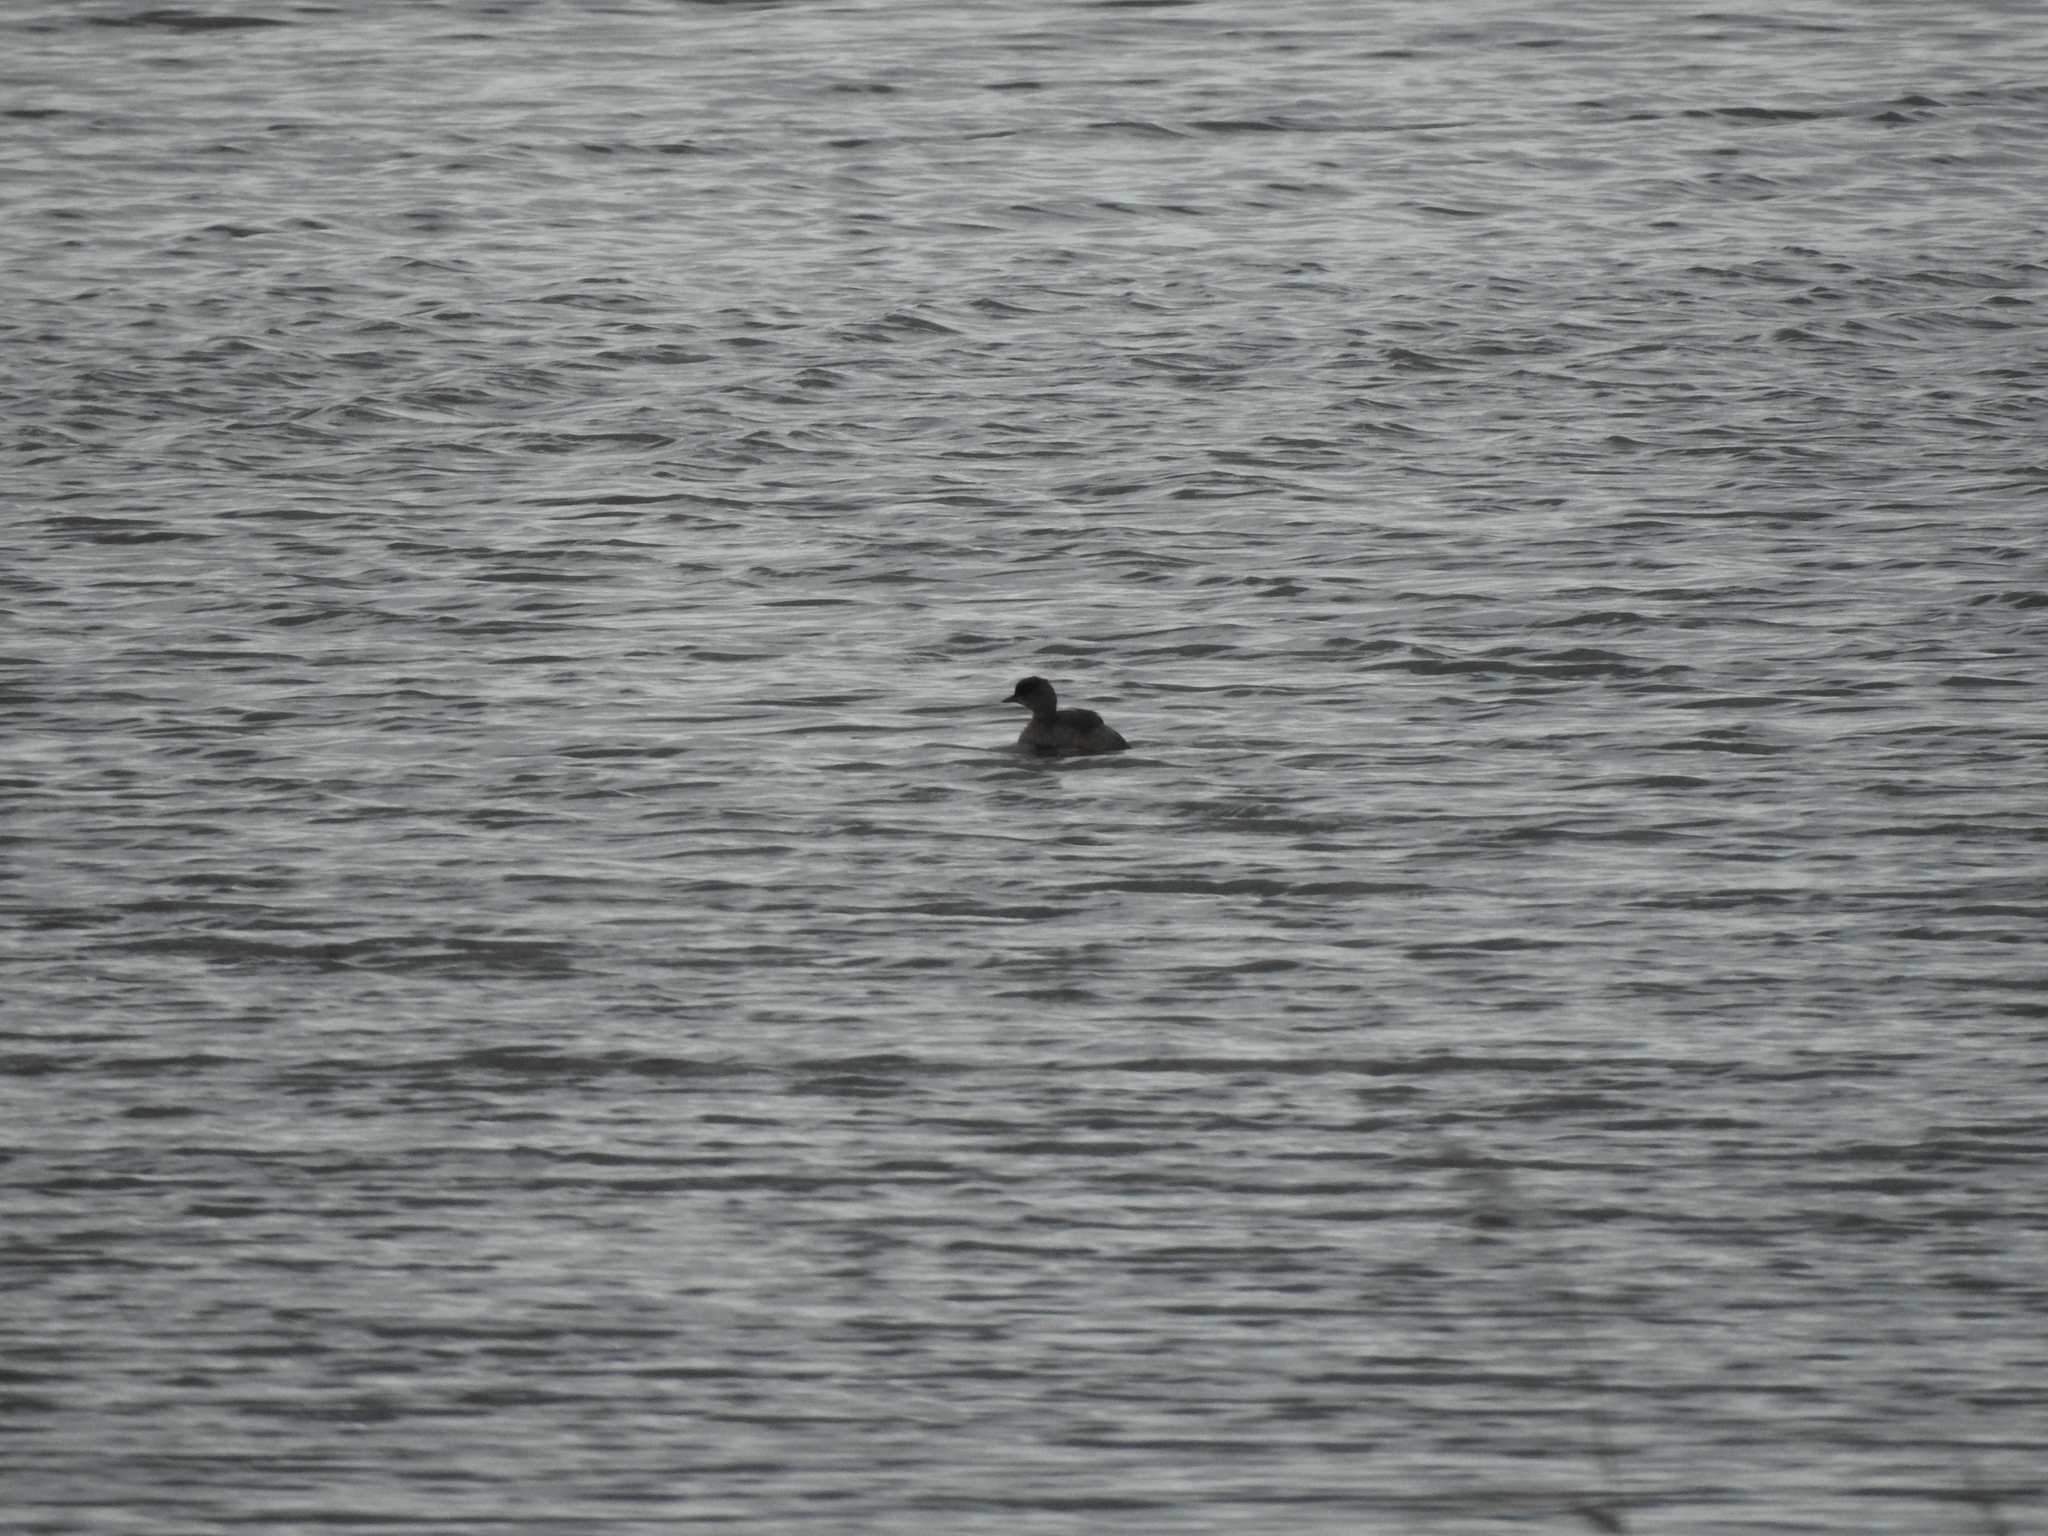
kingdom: Animalia
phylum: Chordata
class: Aves
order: Podicipediformes
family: Podicipedidae
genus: Tachybaptus
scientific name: Tachybaptus ruficollis
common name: Little grebe
